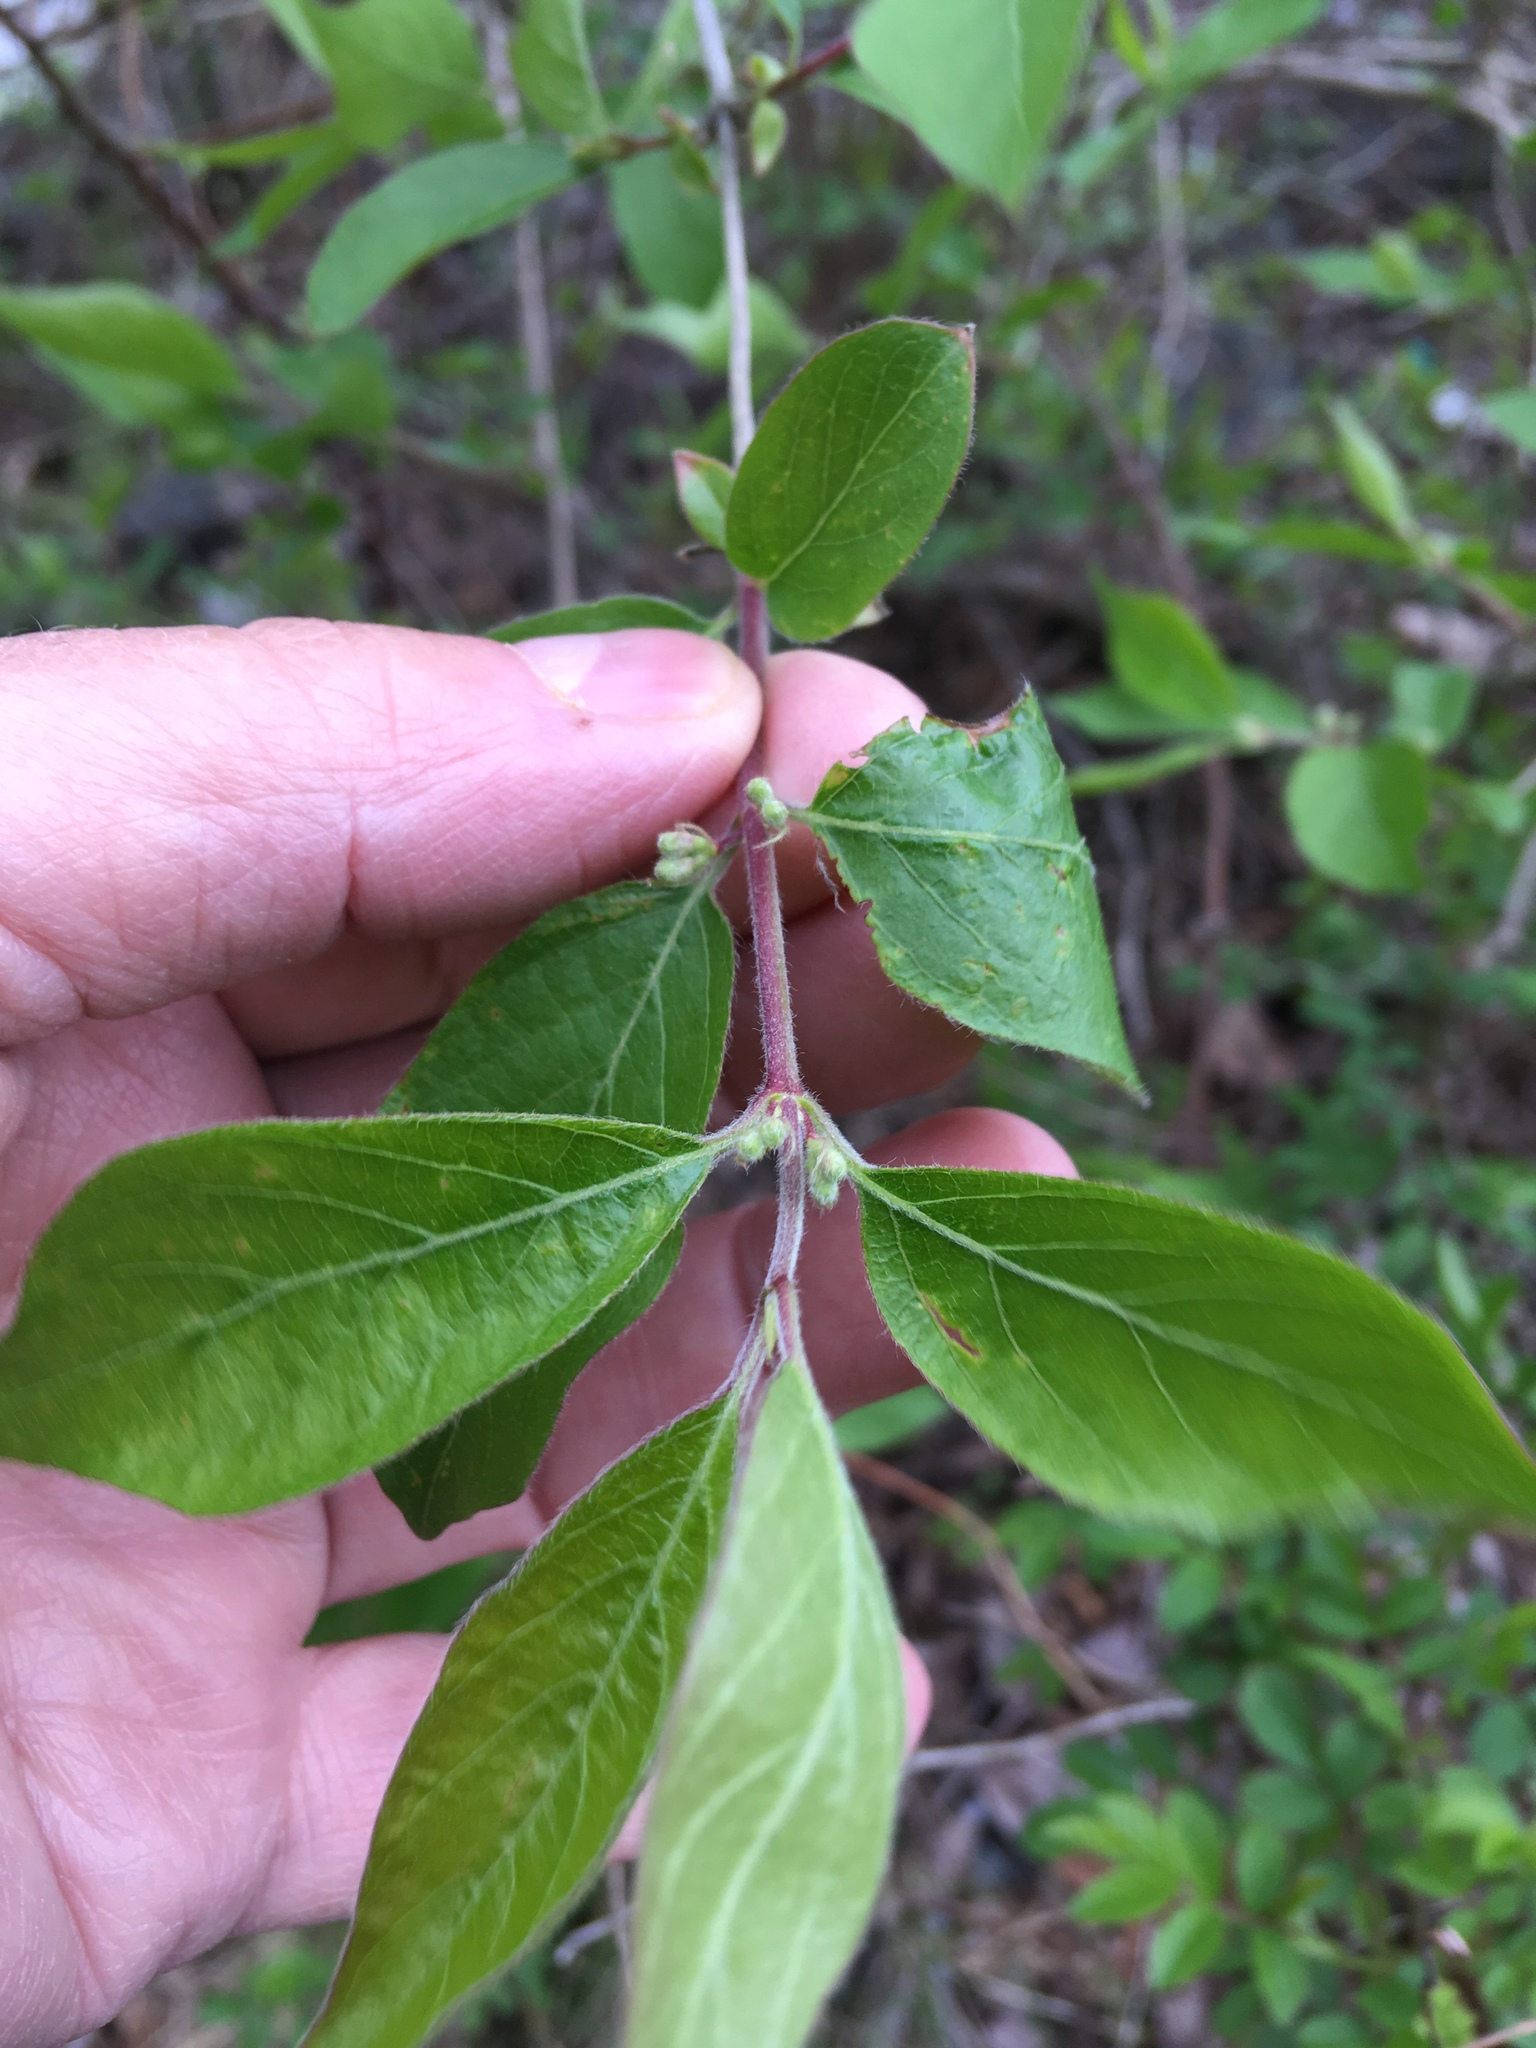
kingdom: Plantae
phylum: Tracheophyta
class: Magnoliopsida
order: Dipsacales
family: Caprifoliaceae
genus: Lonicera
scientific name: Lonicera maackii
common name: Amur honeysuckle
